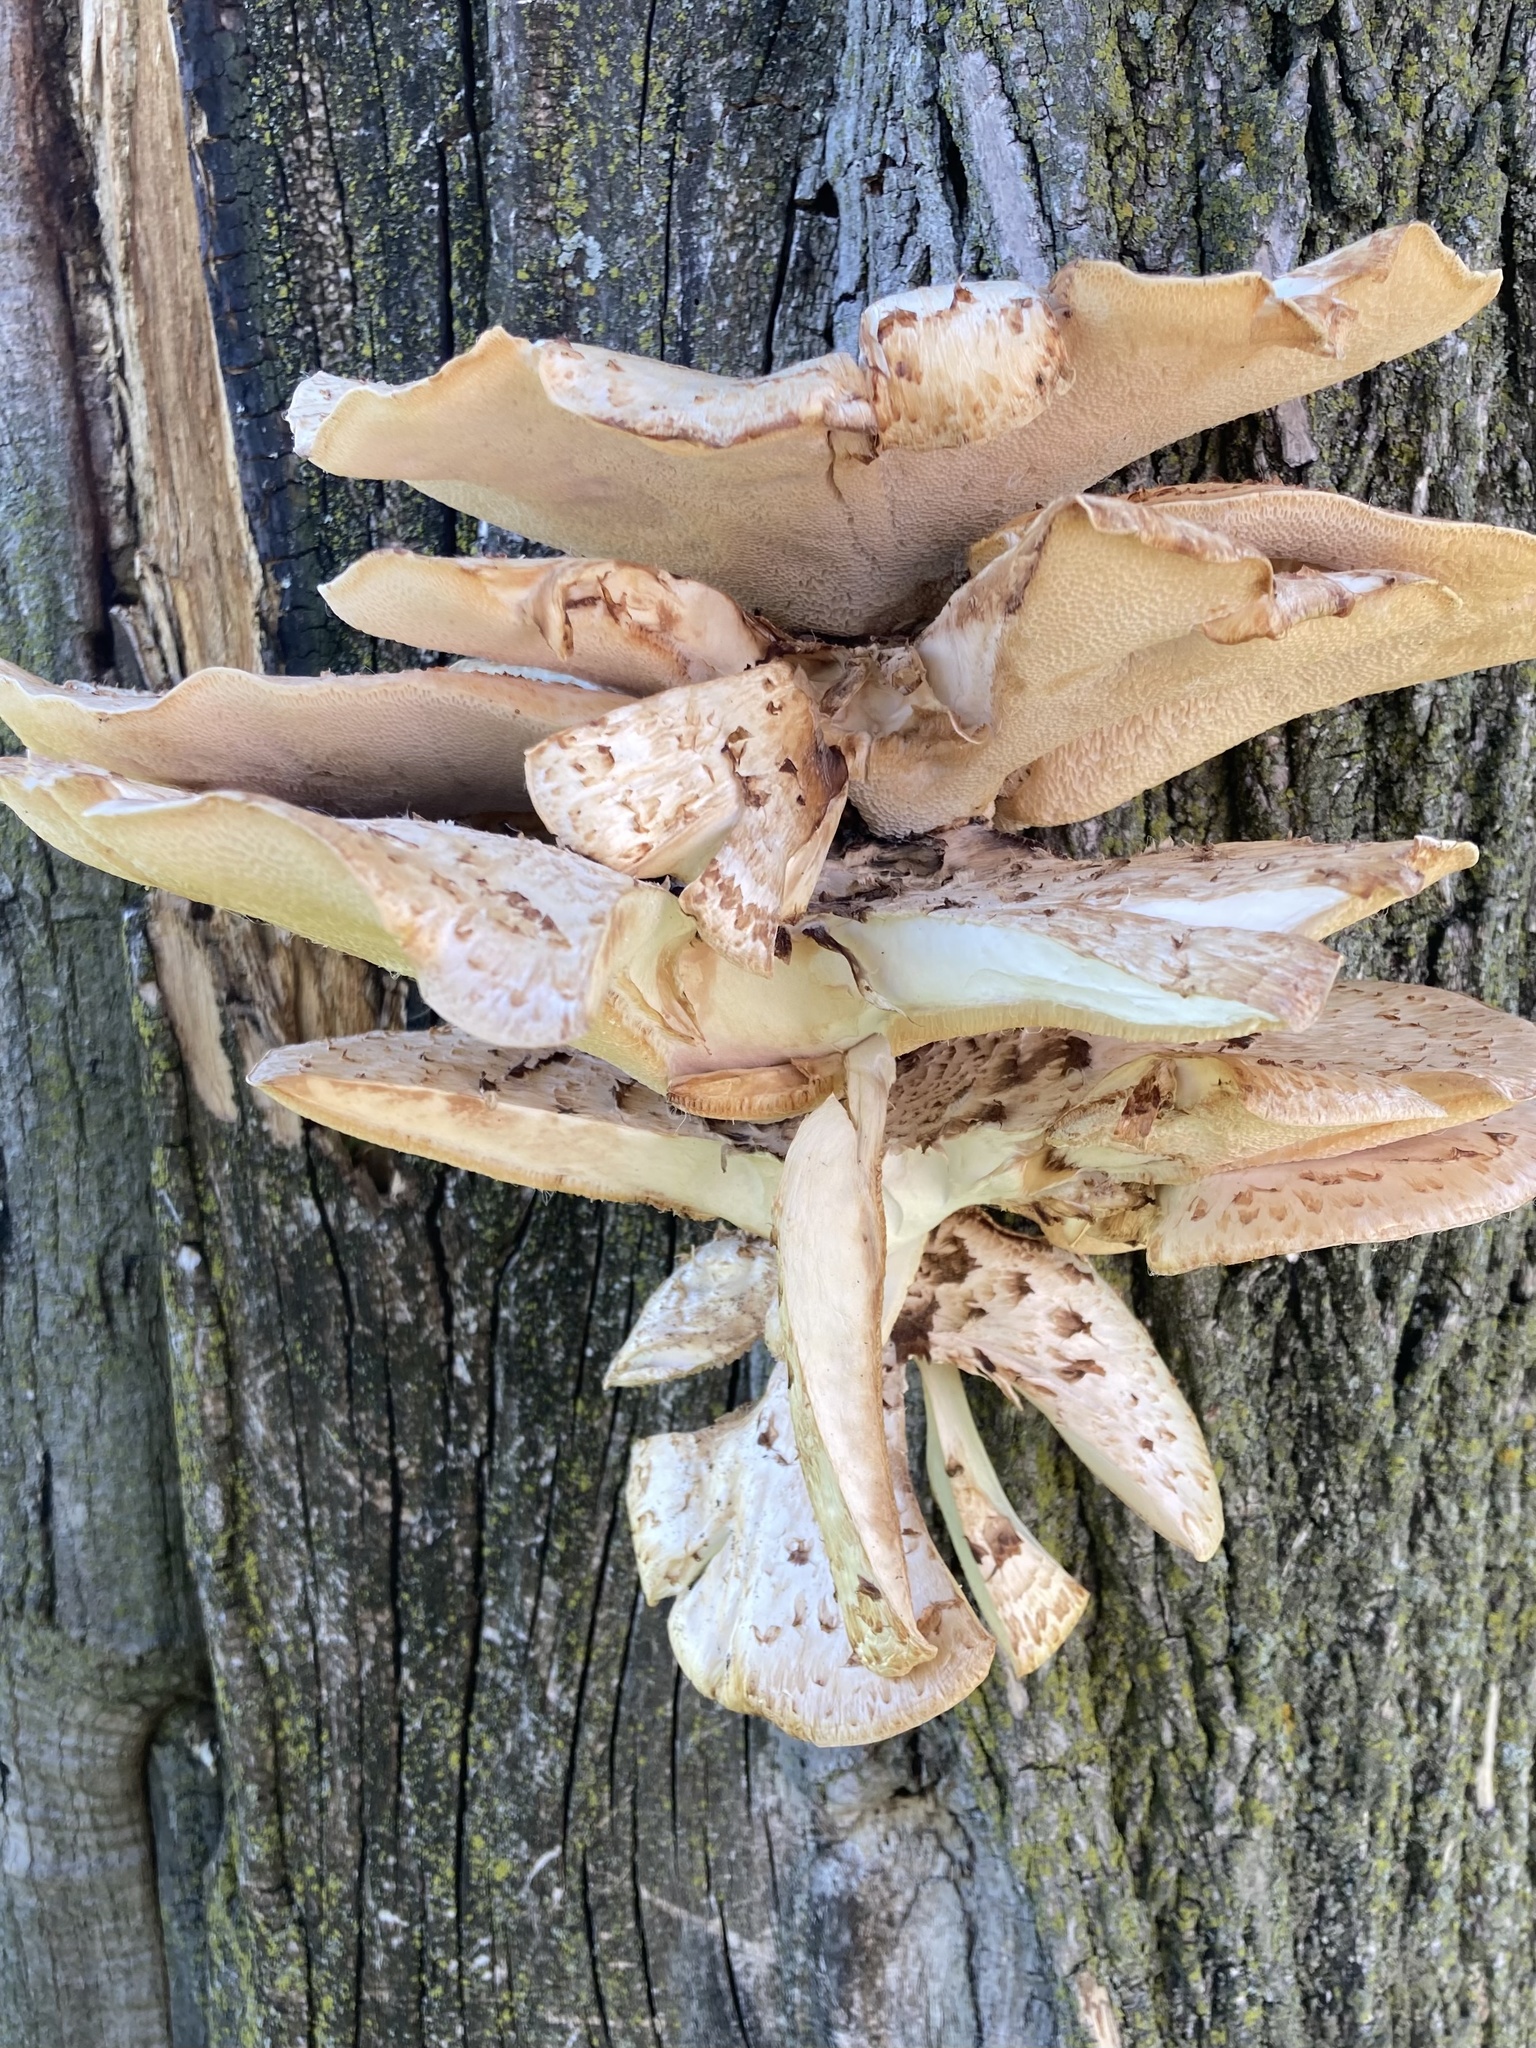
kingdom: Fungi
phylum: Basidiomycota
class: Agaricomycetes
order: Polyporales
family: Polyporaceae
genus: Cerioporus
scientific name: Cerioporus squamosus
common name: Dryad's saddle
